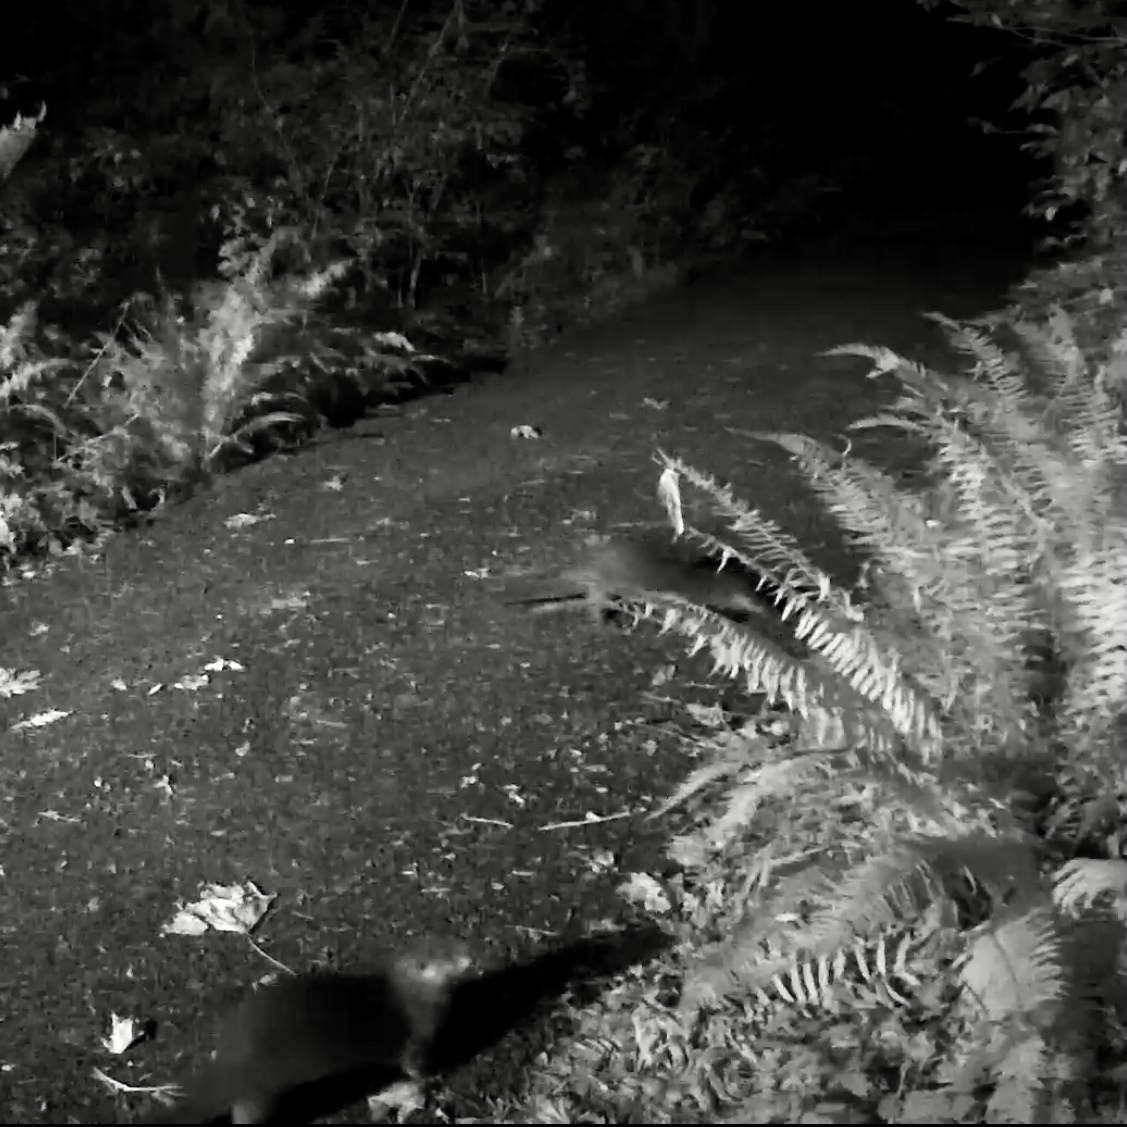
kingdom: Animalia
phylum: Chordata
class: Mammalia
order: Carnivora
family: Mustelidae
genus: Lontra
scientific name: Lontra canadensis
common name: North american river otter
